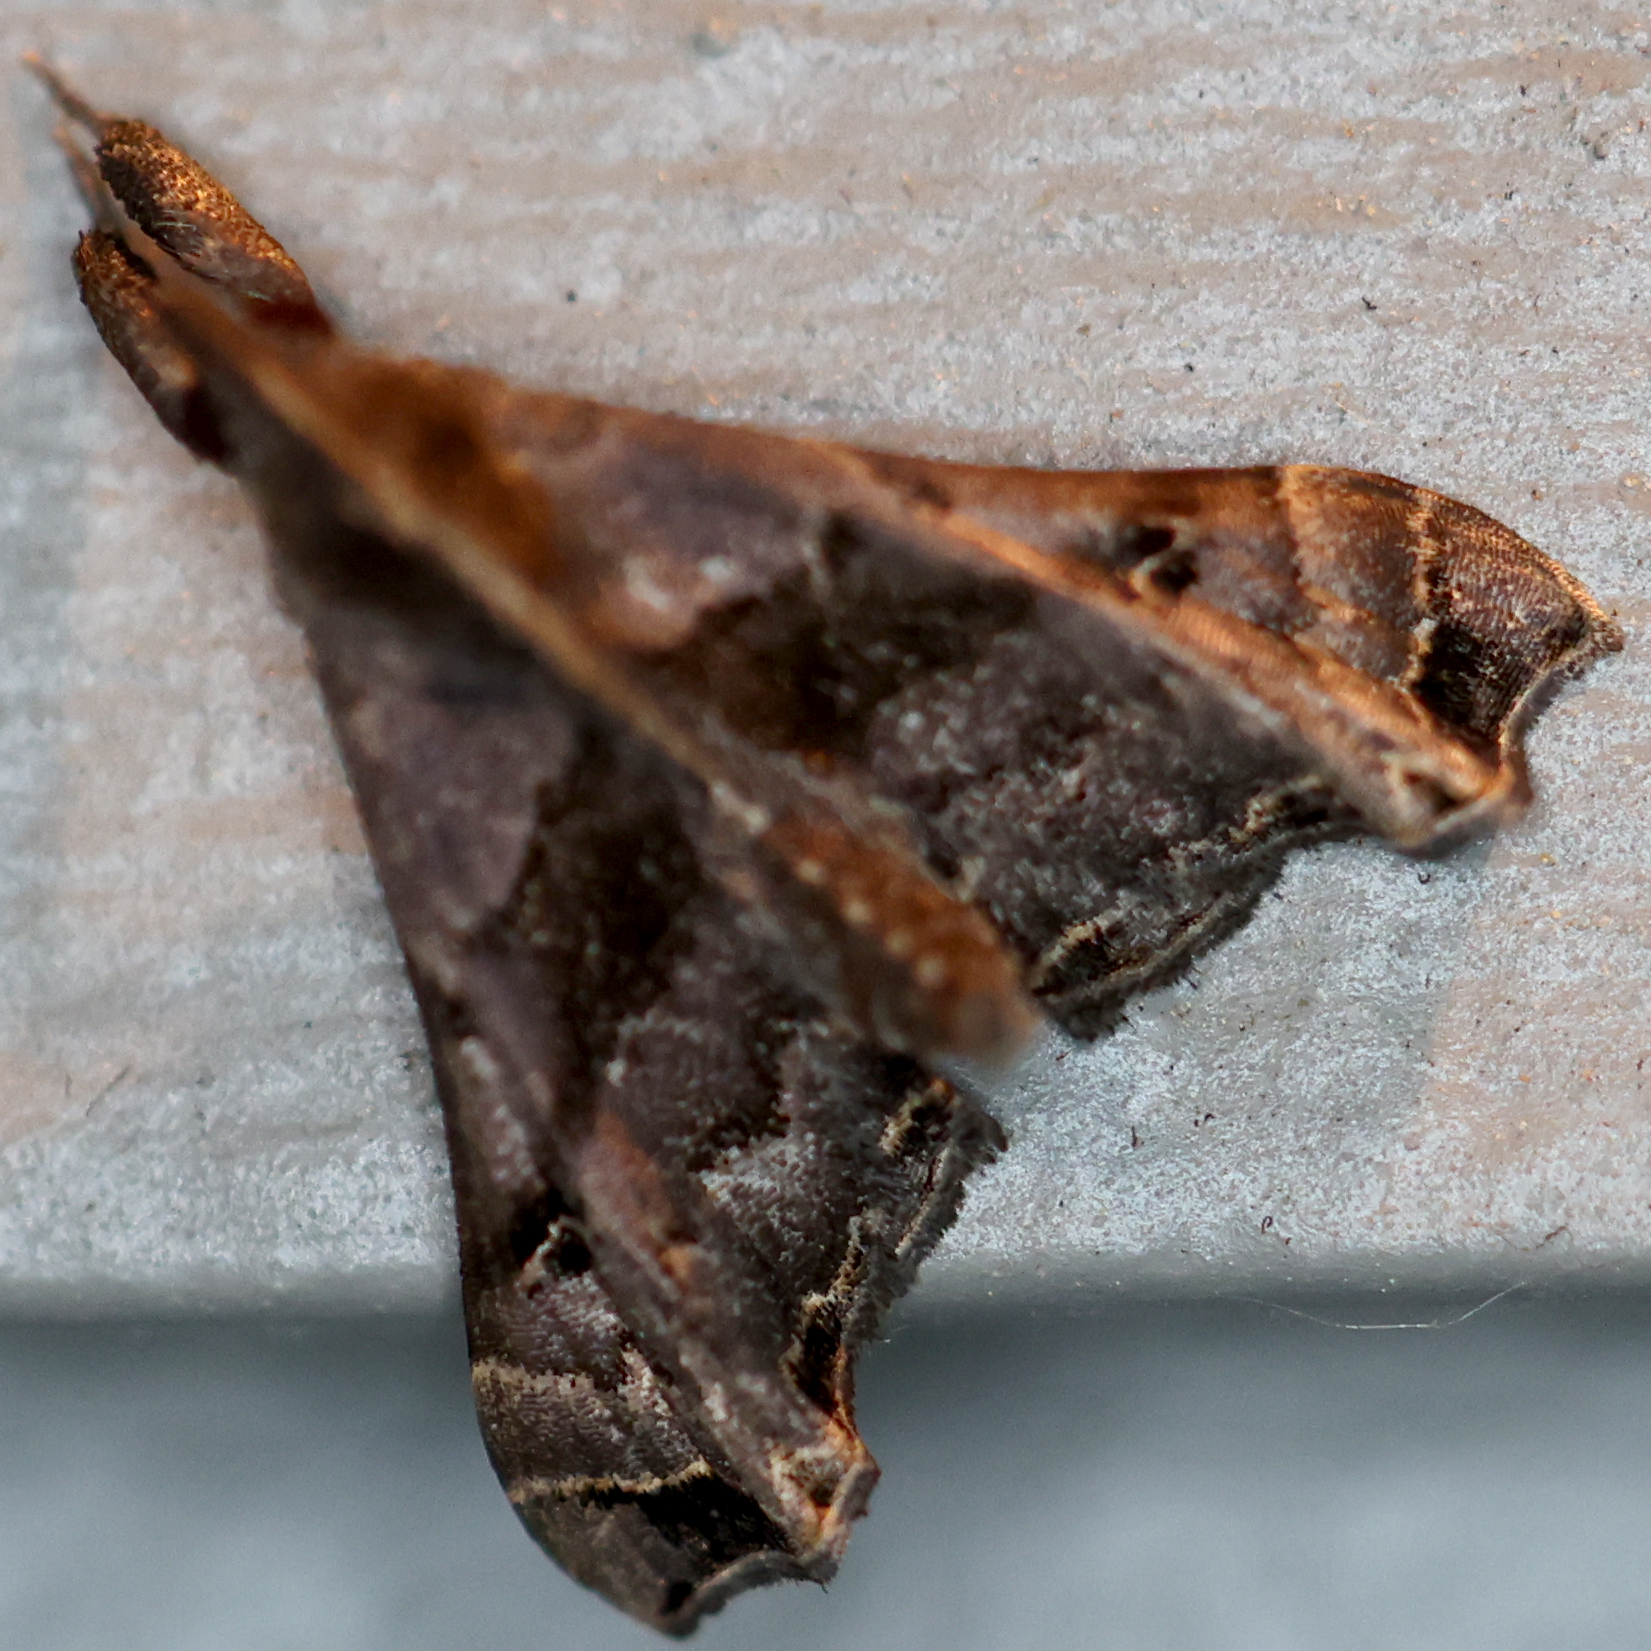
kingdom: Animalia
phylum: Arthropoda
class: Insecta
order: Lepidoptera
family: Erebidae
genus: Palthis
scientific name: Palthis asopialis
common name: Faint-spotted palthis moth
